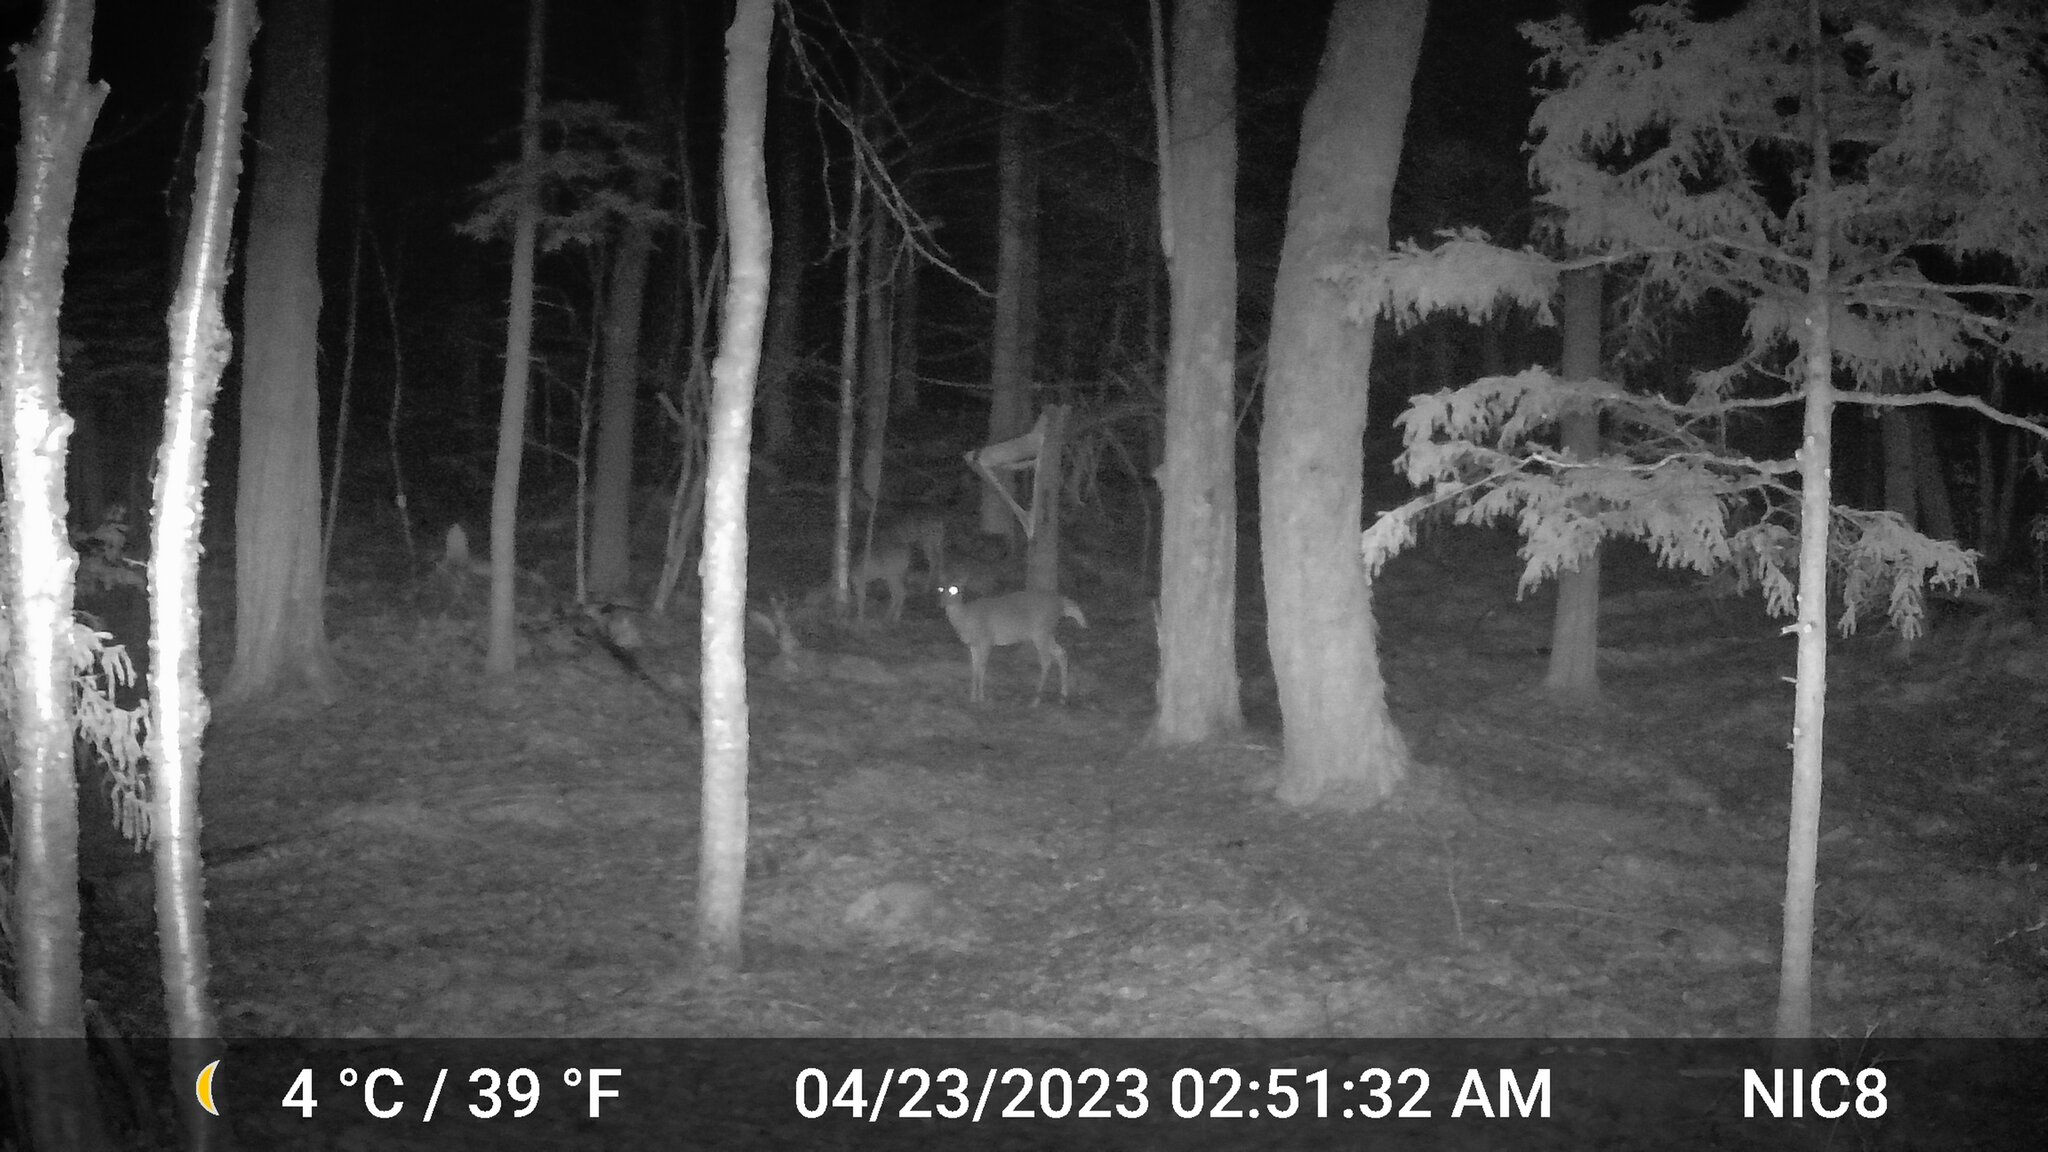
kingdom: Animalia
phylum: Chordata
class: Mammalia
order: Artiodactyla
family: Cervidae
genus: Odocoileus
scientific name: Odocoileus virginianus
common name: White-tailed deer
